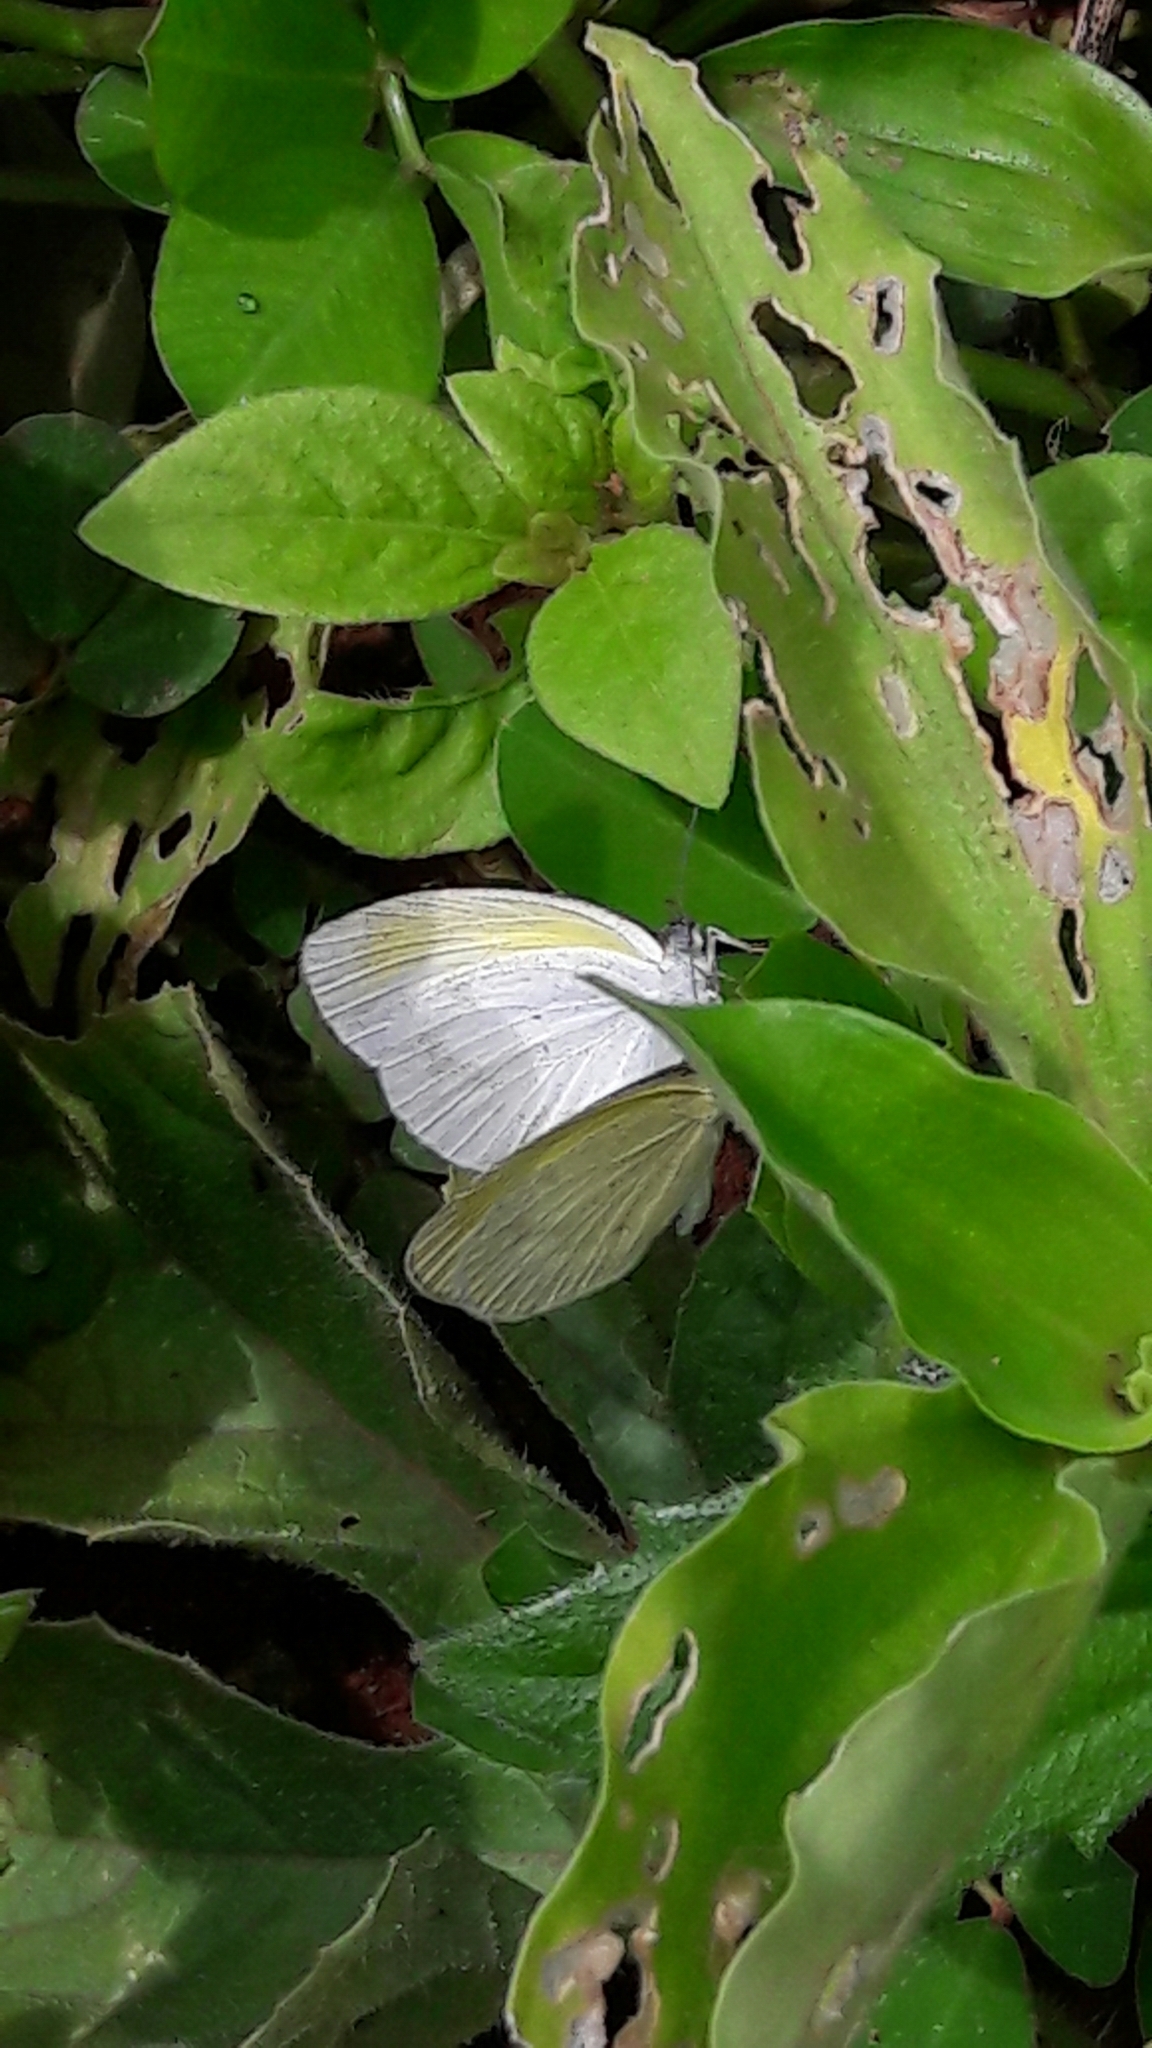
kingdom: Animalia
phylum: Arthropoda
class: Insecta
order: Lepidoptera
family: Pieridae
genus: Eurema
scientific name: Eurema elathea
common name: Banded yellow
